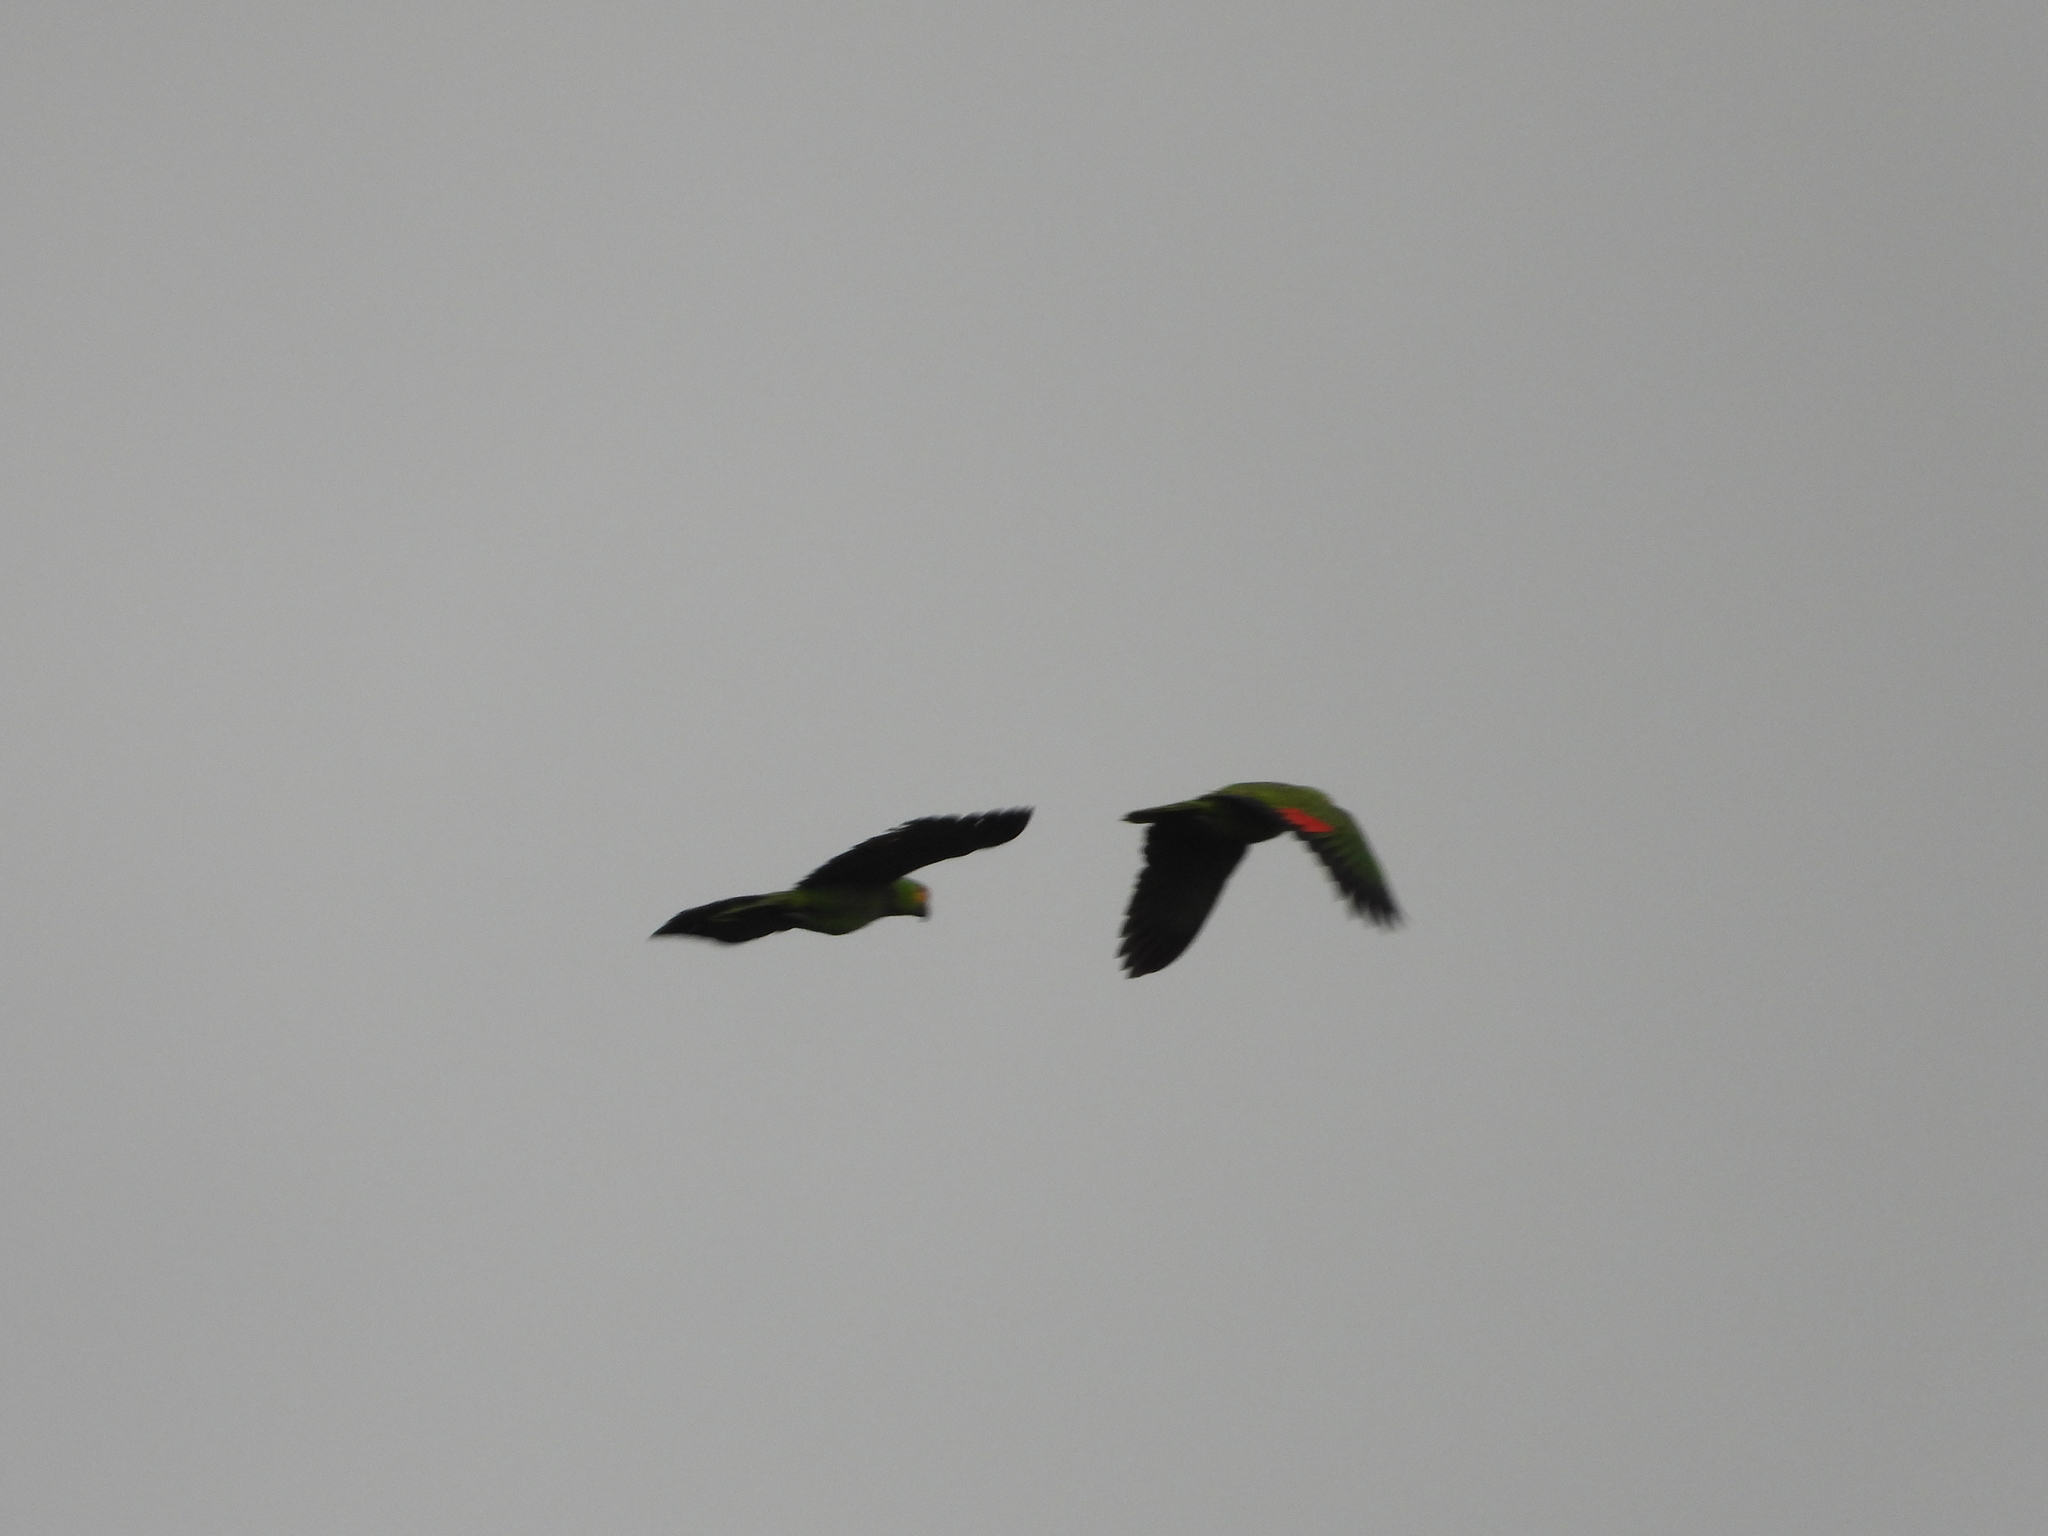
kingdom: Animalia
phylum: Chordata
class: Aves
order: Psittaciformes
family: Psittacidae
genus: Amazona
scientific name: Amazona autumnalis
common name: Red-lored amazon
